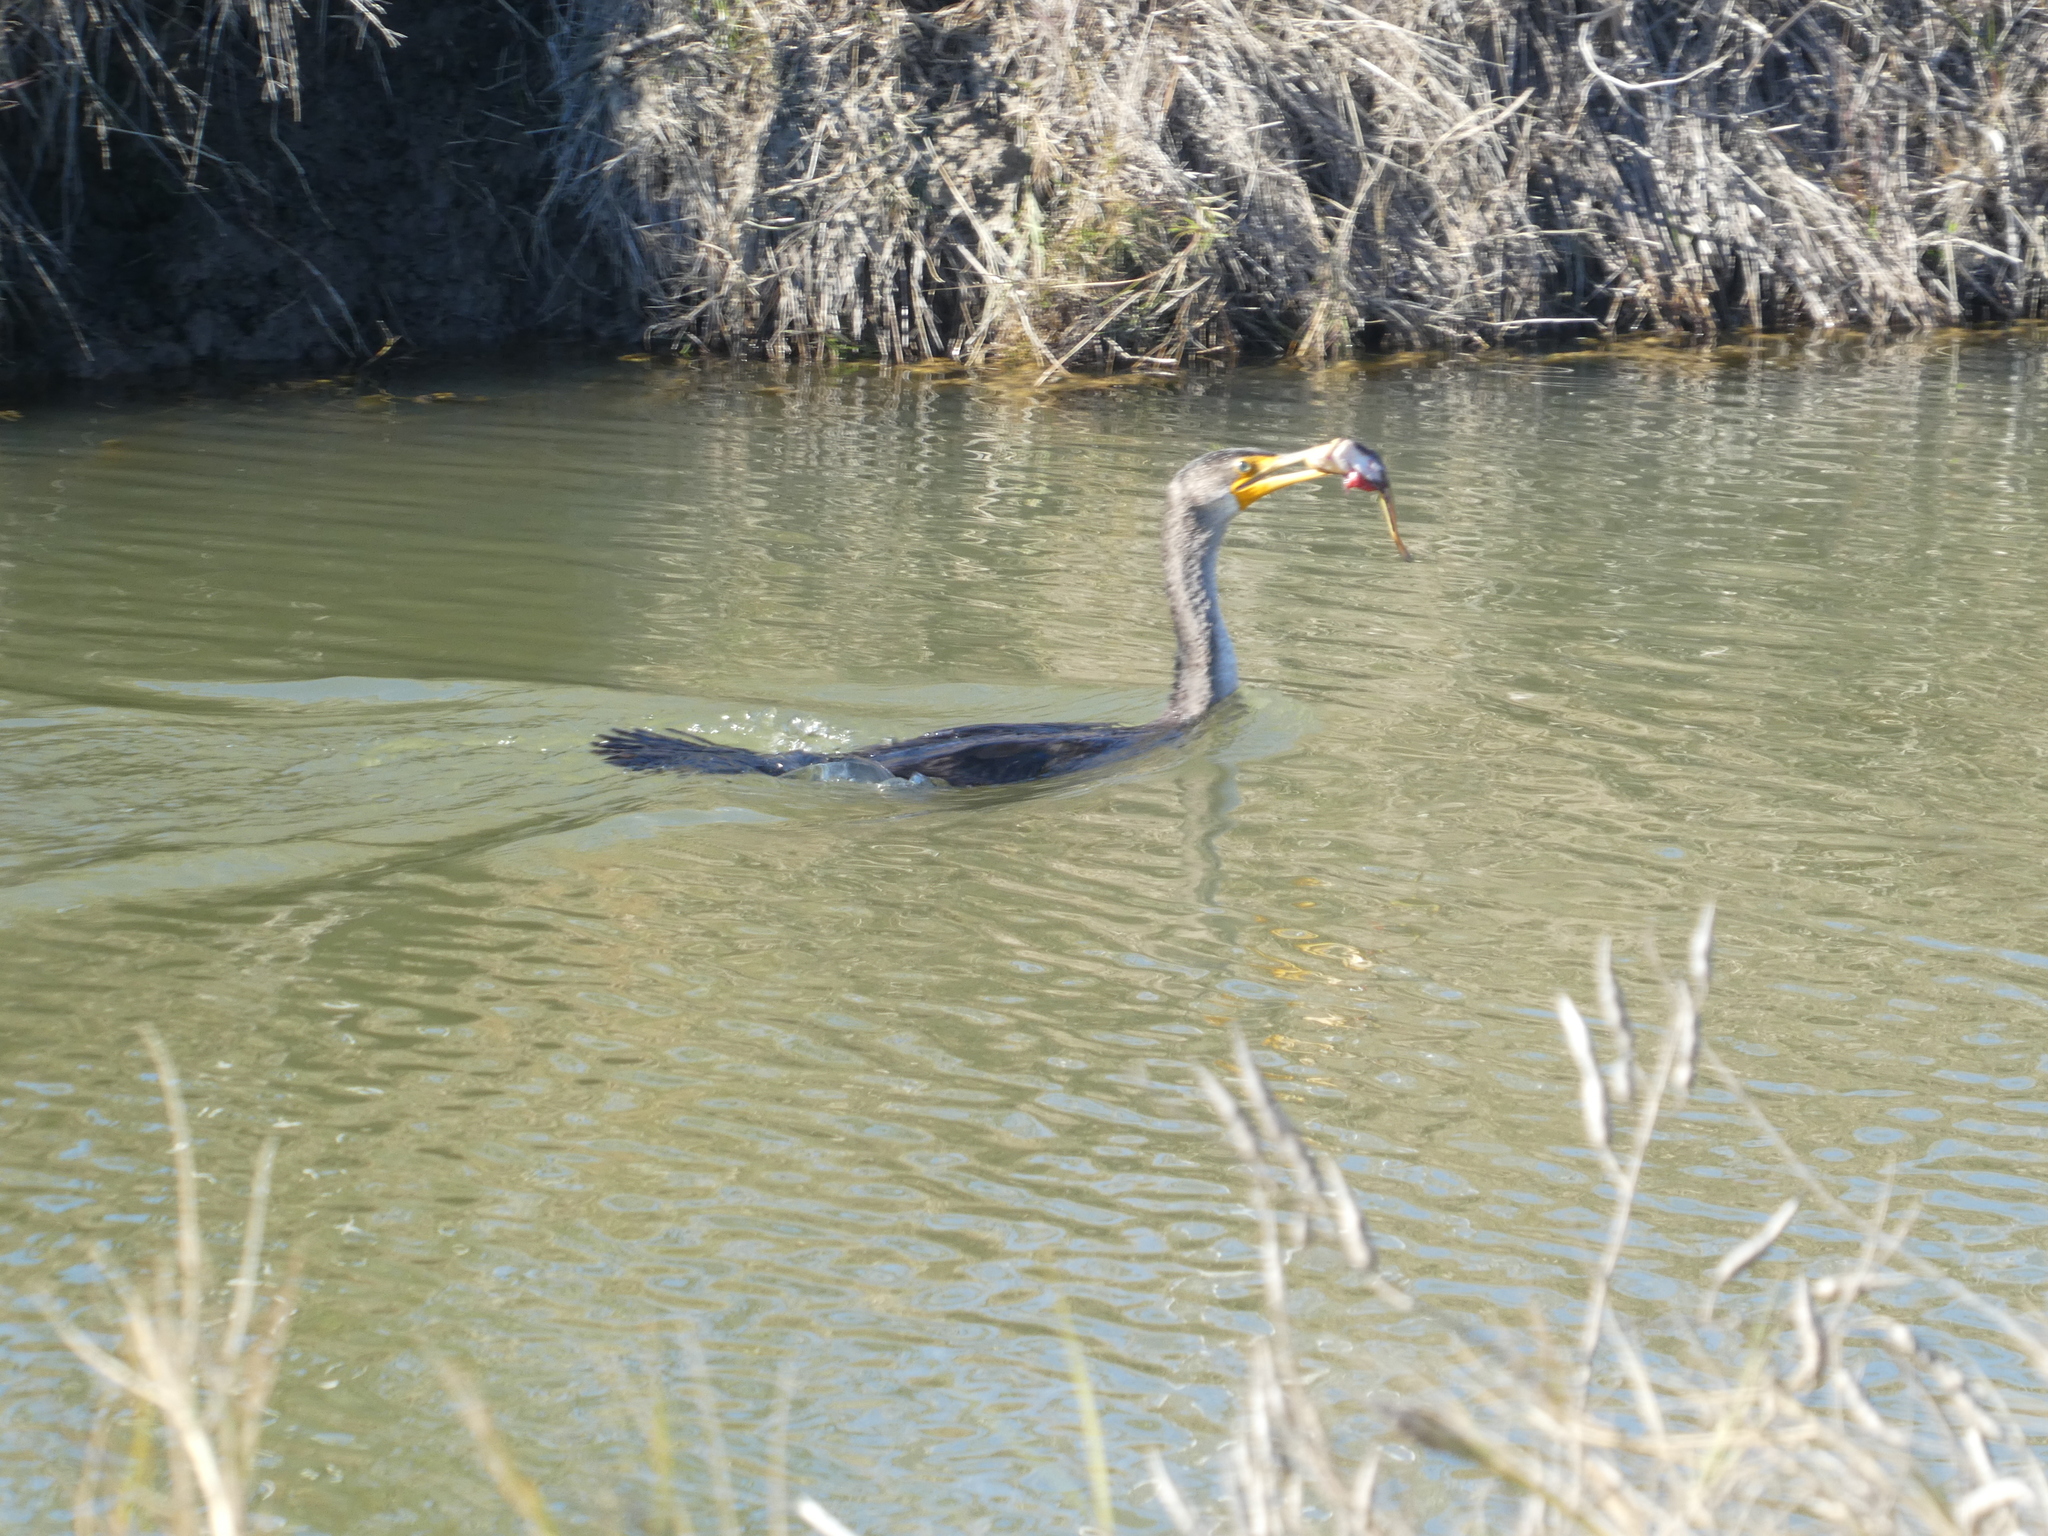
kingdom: Animalia
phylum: Chordata
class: Aves
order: Suliformes
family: Phalacrocoracidae
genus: Phalacrocorax
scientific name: Phalacrocorax auritus
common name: Double-crested cormorant
